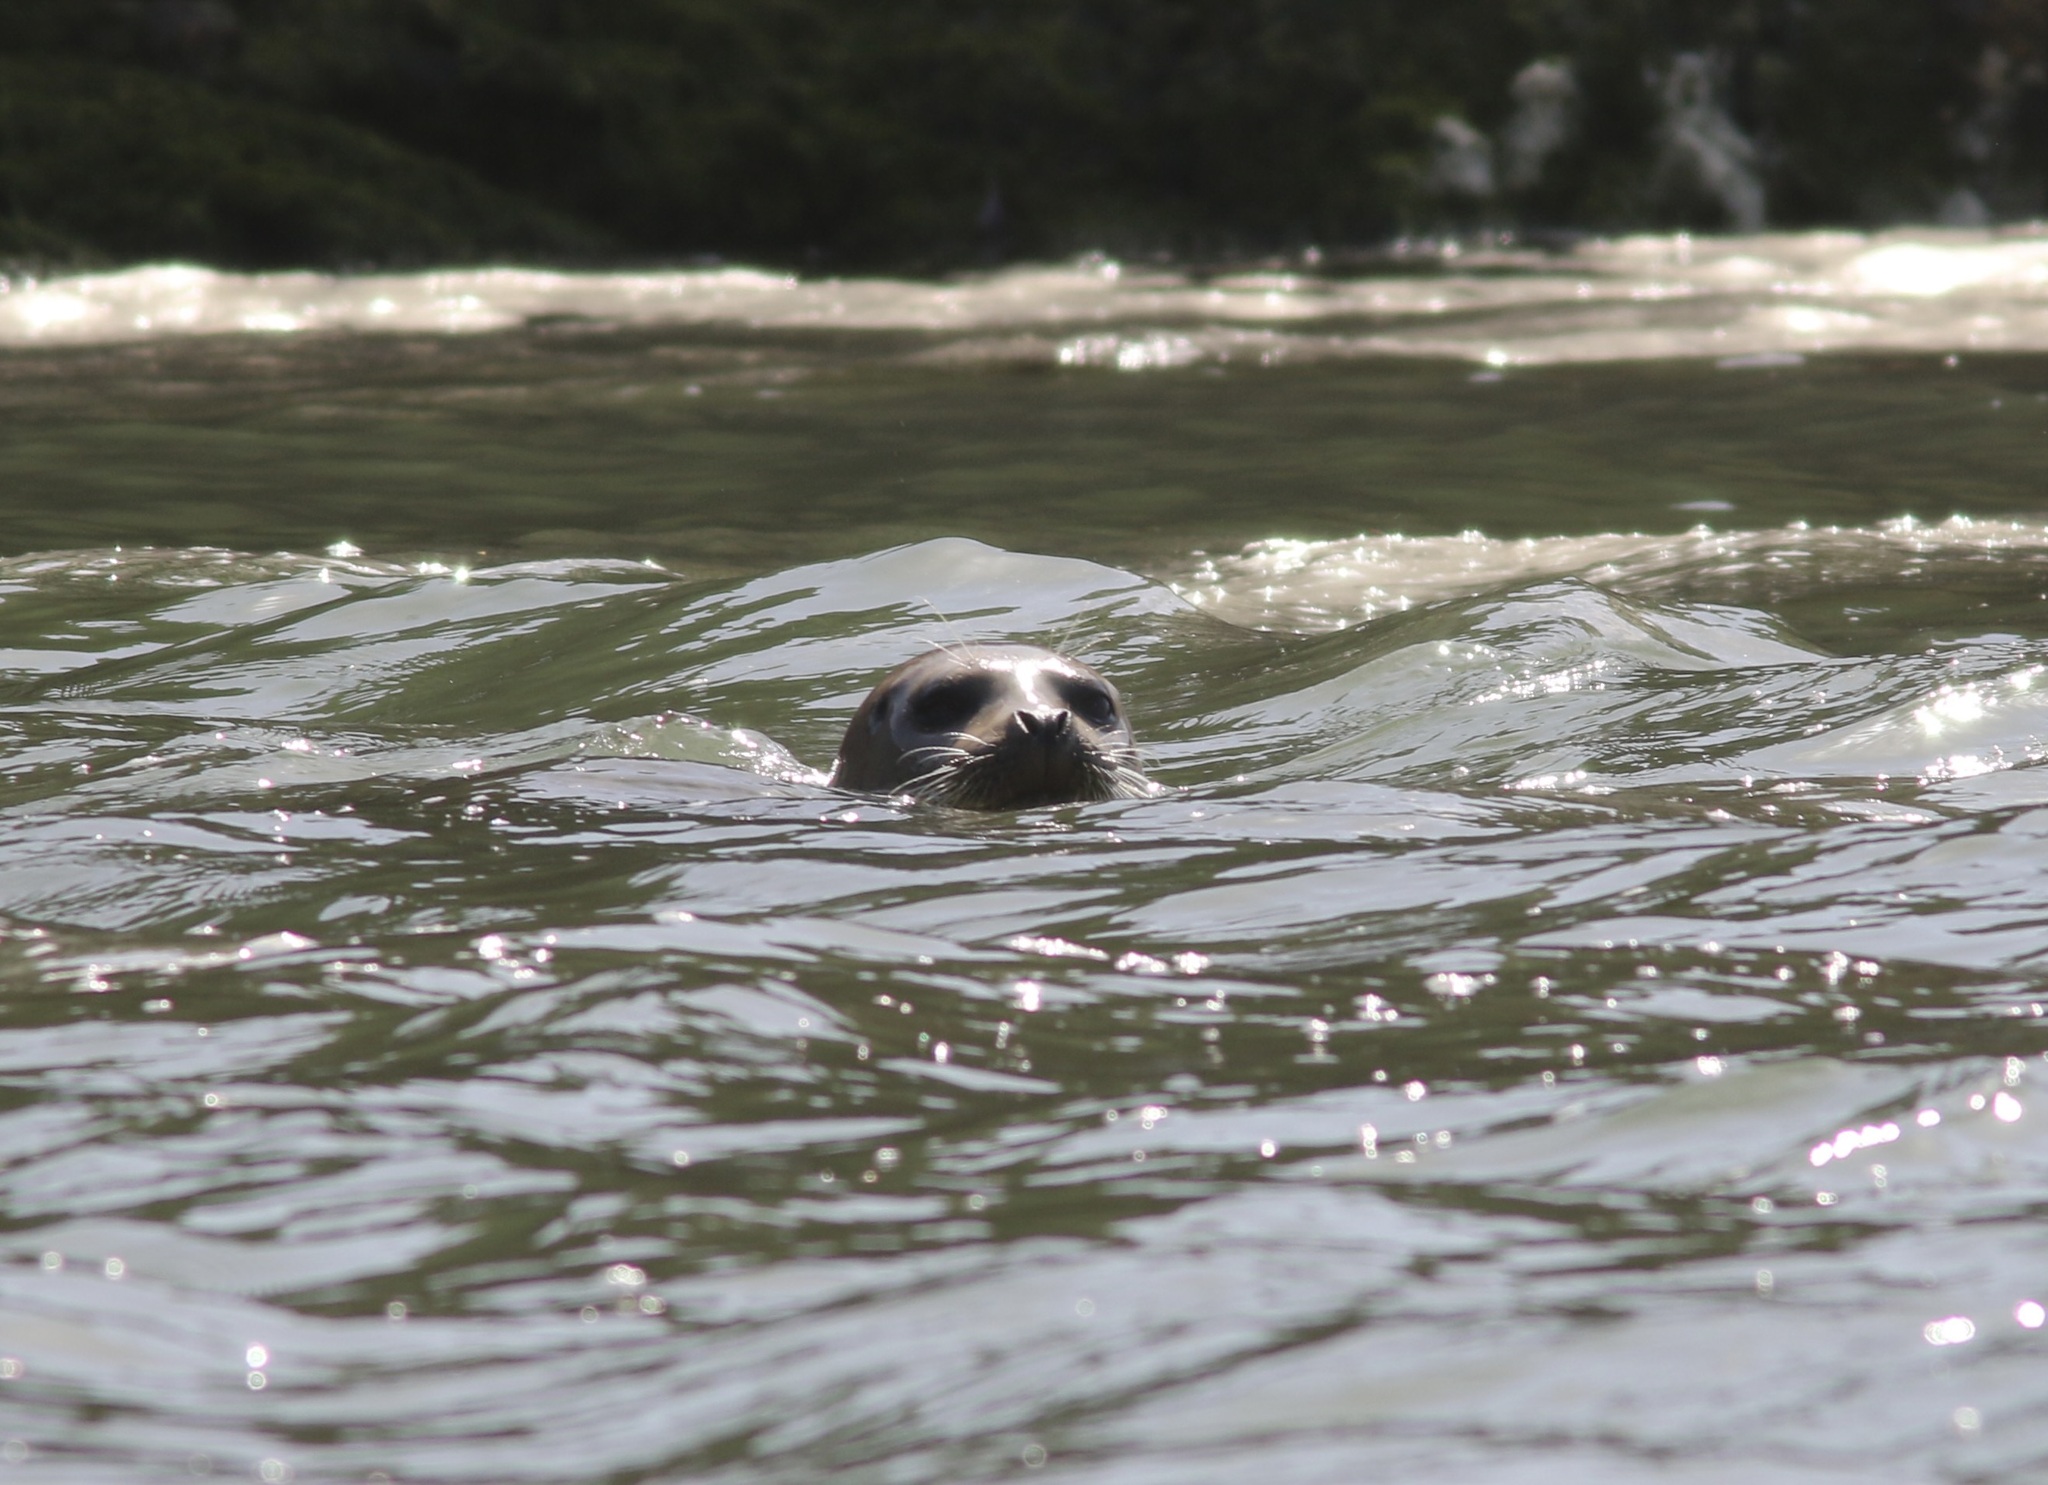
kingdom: Animalia
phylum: Chordata
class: Mammalia
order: Carnivora
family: Phocidae
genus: Phoca
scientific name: Phoca vitulina
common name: Harbor seal
